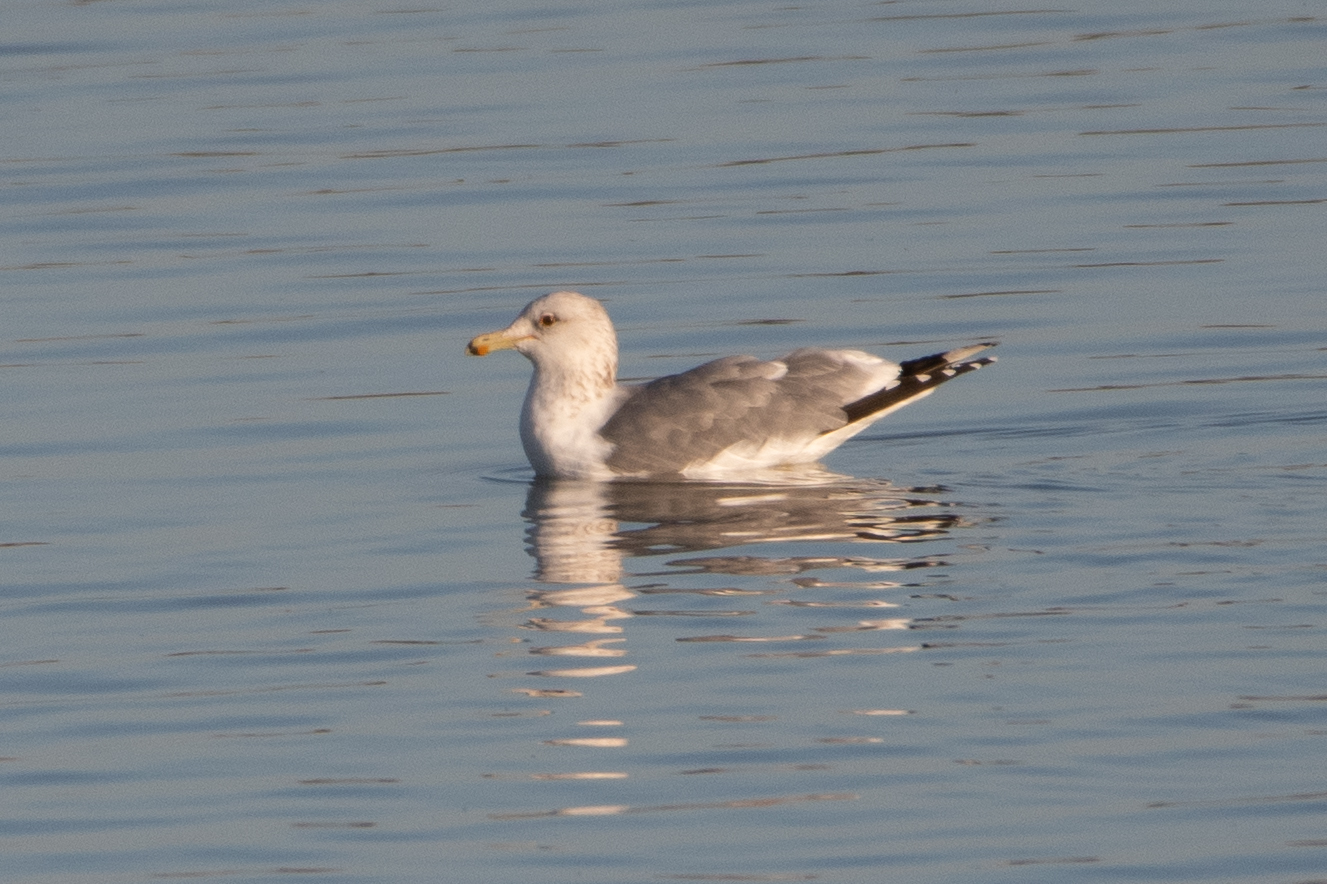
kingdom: Animalia
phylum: Chordata
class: Aves
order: Charadriiformes
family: Laridae
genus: Larus
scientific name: Larus californicus
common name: California gull
